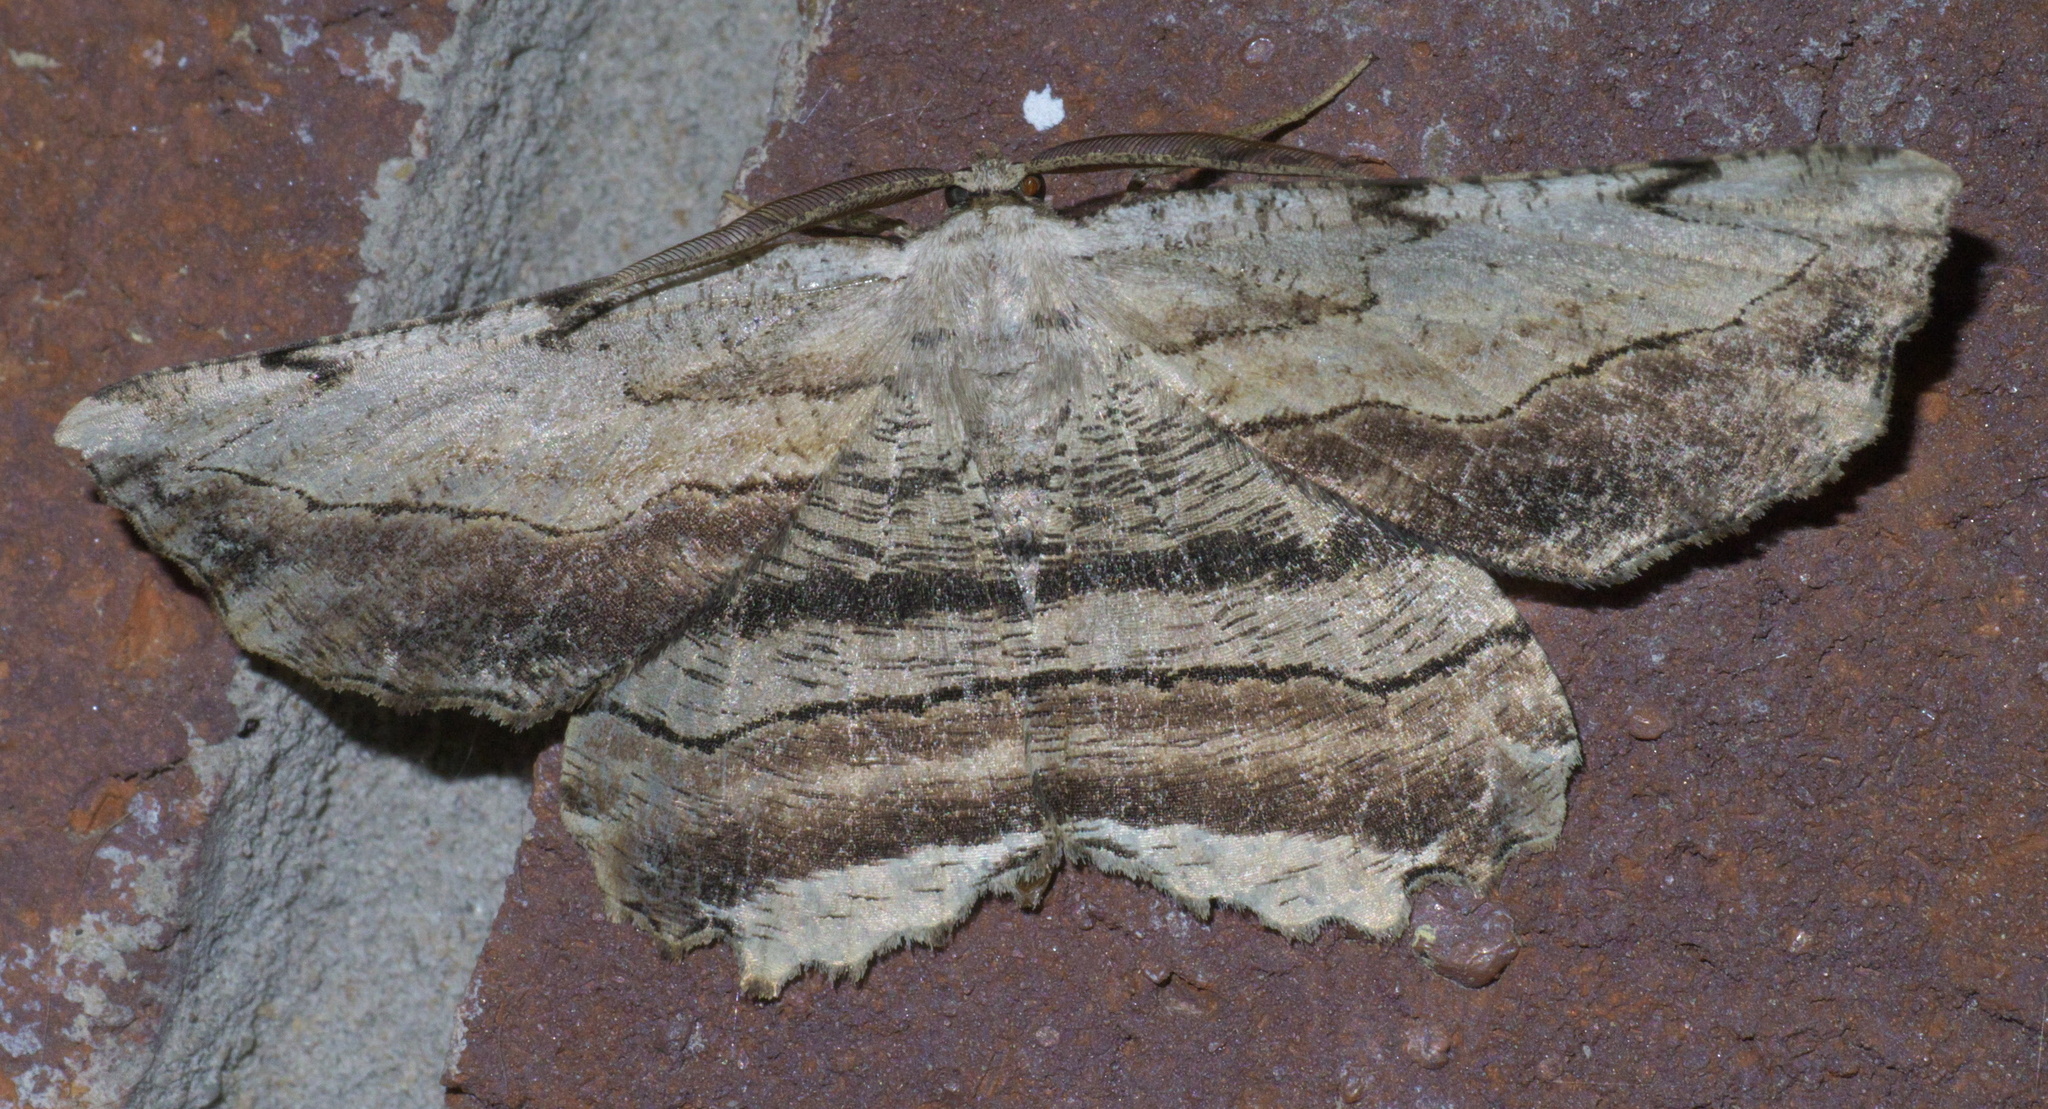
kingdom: Animalia
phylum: Arthropoda
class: Insecta
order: Lepidoptera
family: Geometridae
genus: Lytrosis
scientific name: Lytrosis unitaria
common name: Common lytrosis
